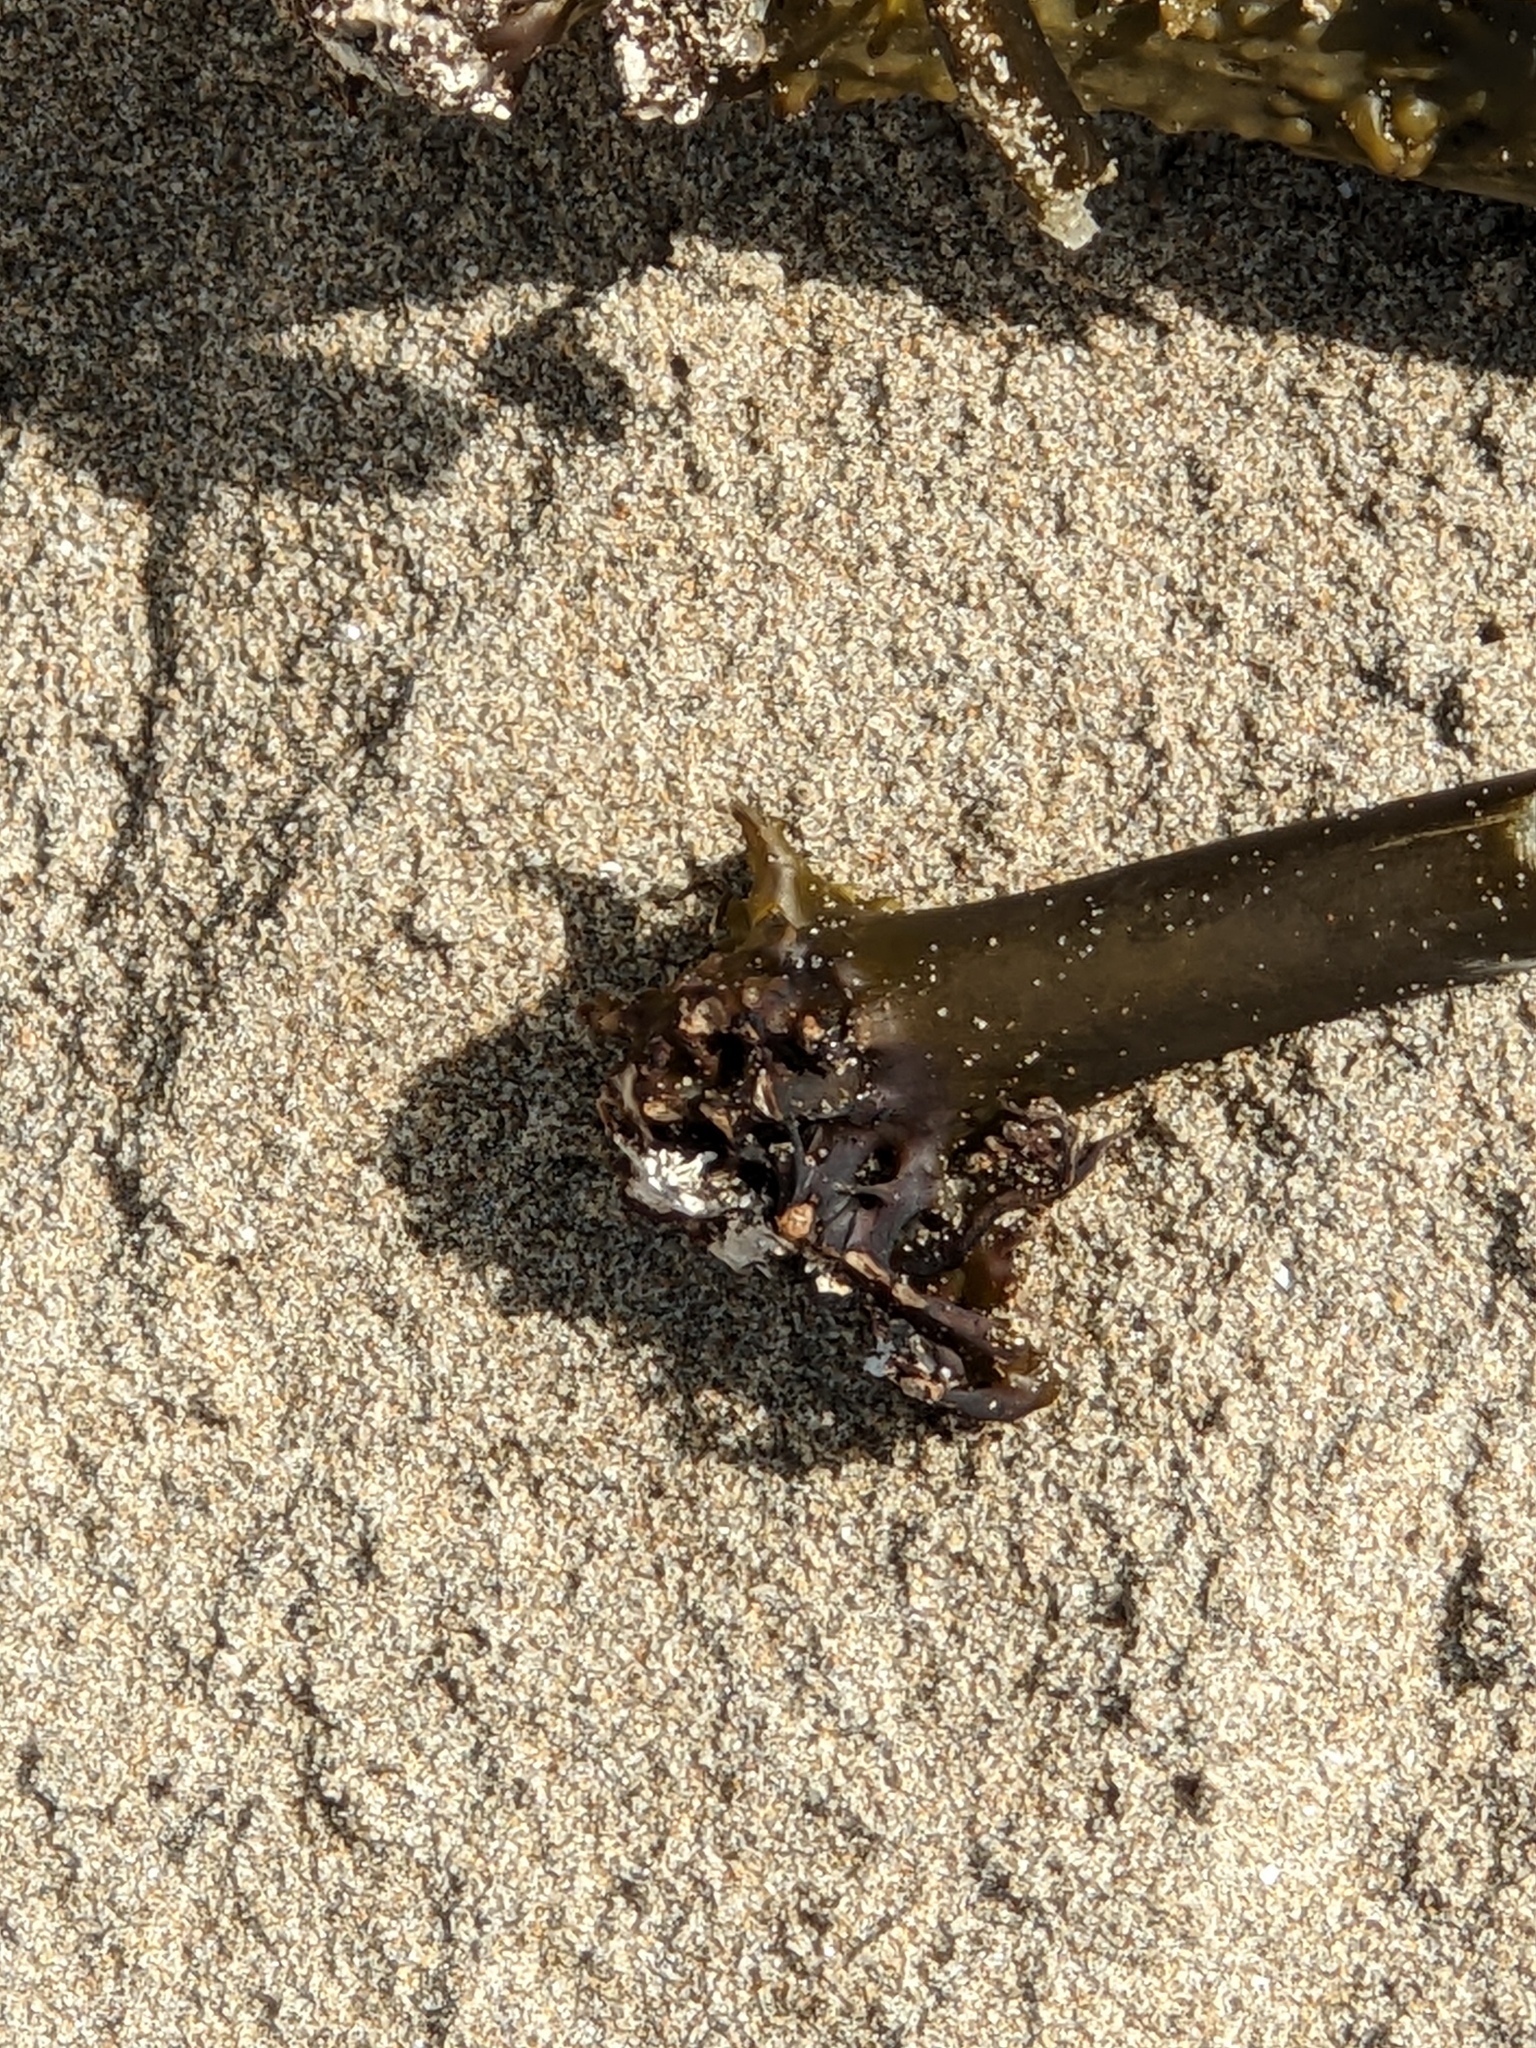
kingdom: Chromista
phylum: Ochrophyta
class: Phaeophyceae
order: Laminariales
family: Laminariaceae
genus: Postelsia
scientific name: Postelsia palmiformis
